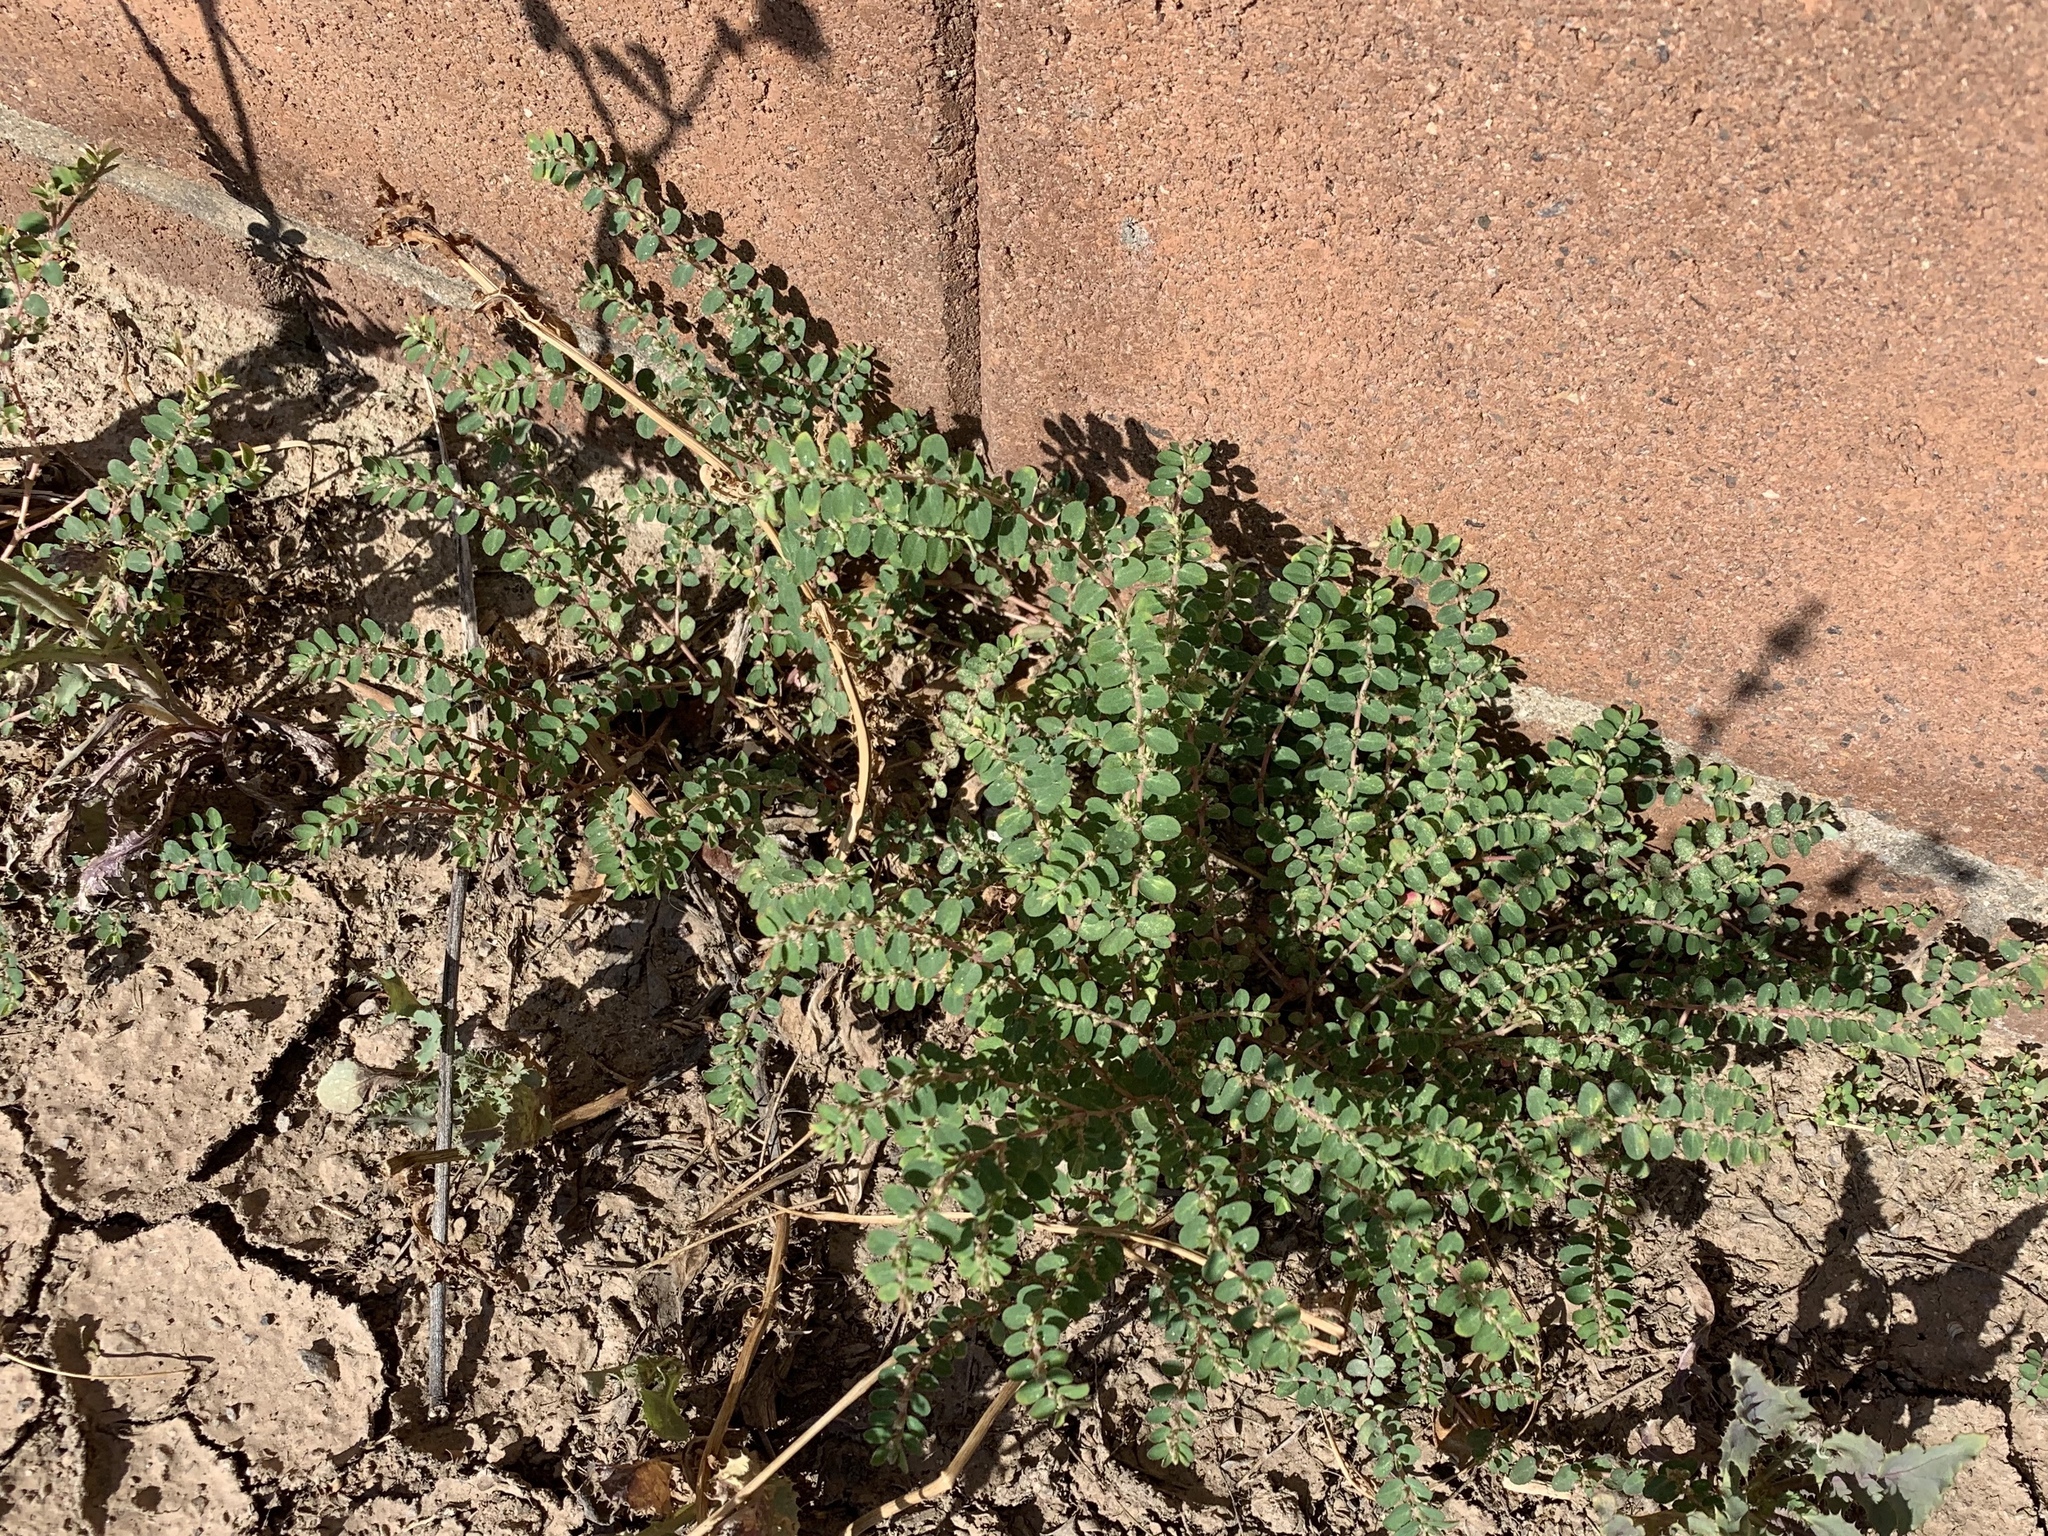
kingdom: Plantae
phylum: Tracheophyta
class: Magnoliopsida
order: Malpighiales
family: Euphorbiaceae
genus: Euphorbia
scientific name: Euphorbia prostrata
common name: Prostrate sandmat
